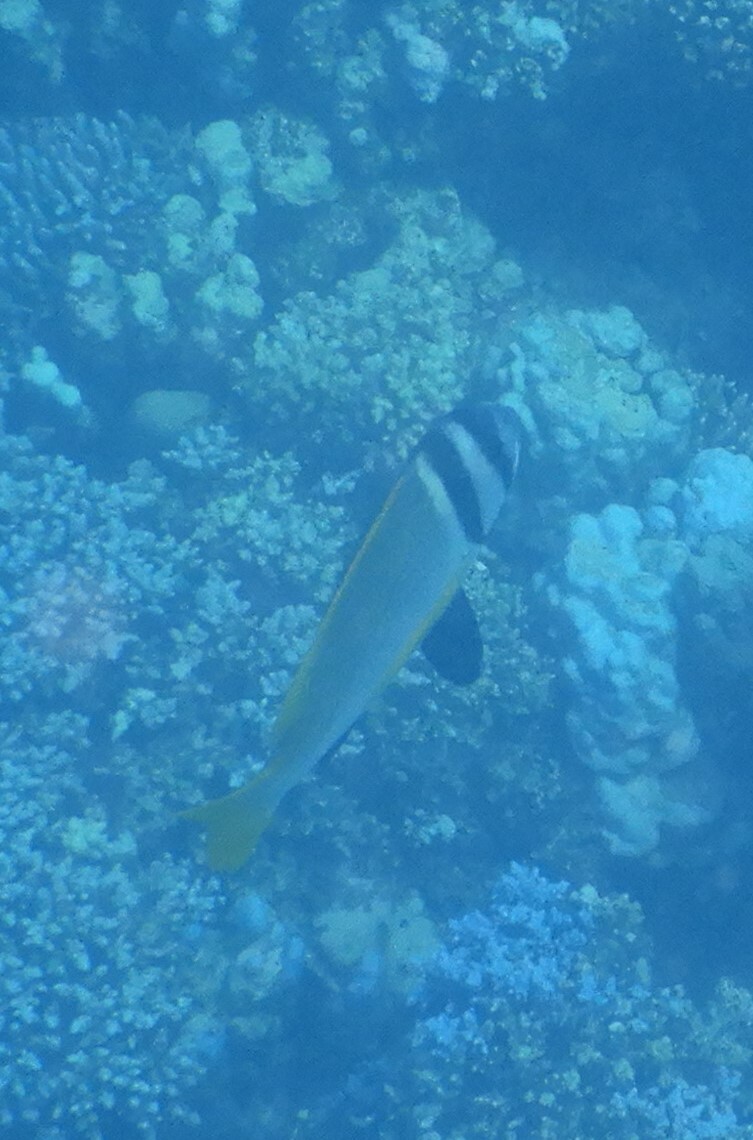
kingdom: Animalia
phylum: Chordata
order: Perciformes
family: Sparidae
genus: Acanthopagrus
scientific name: Acanthopagrus bifasciatus
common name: Twobar seabream
